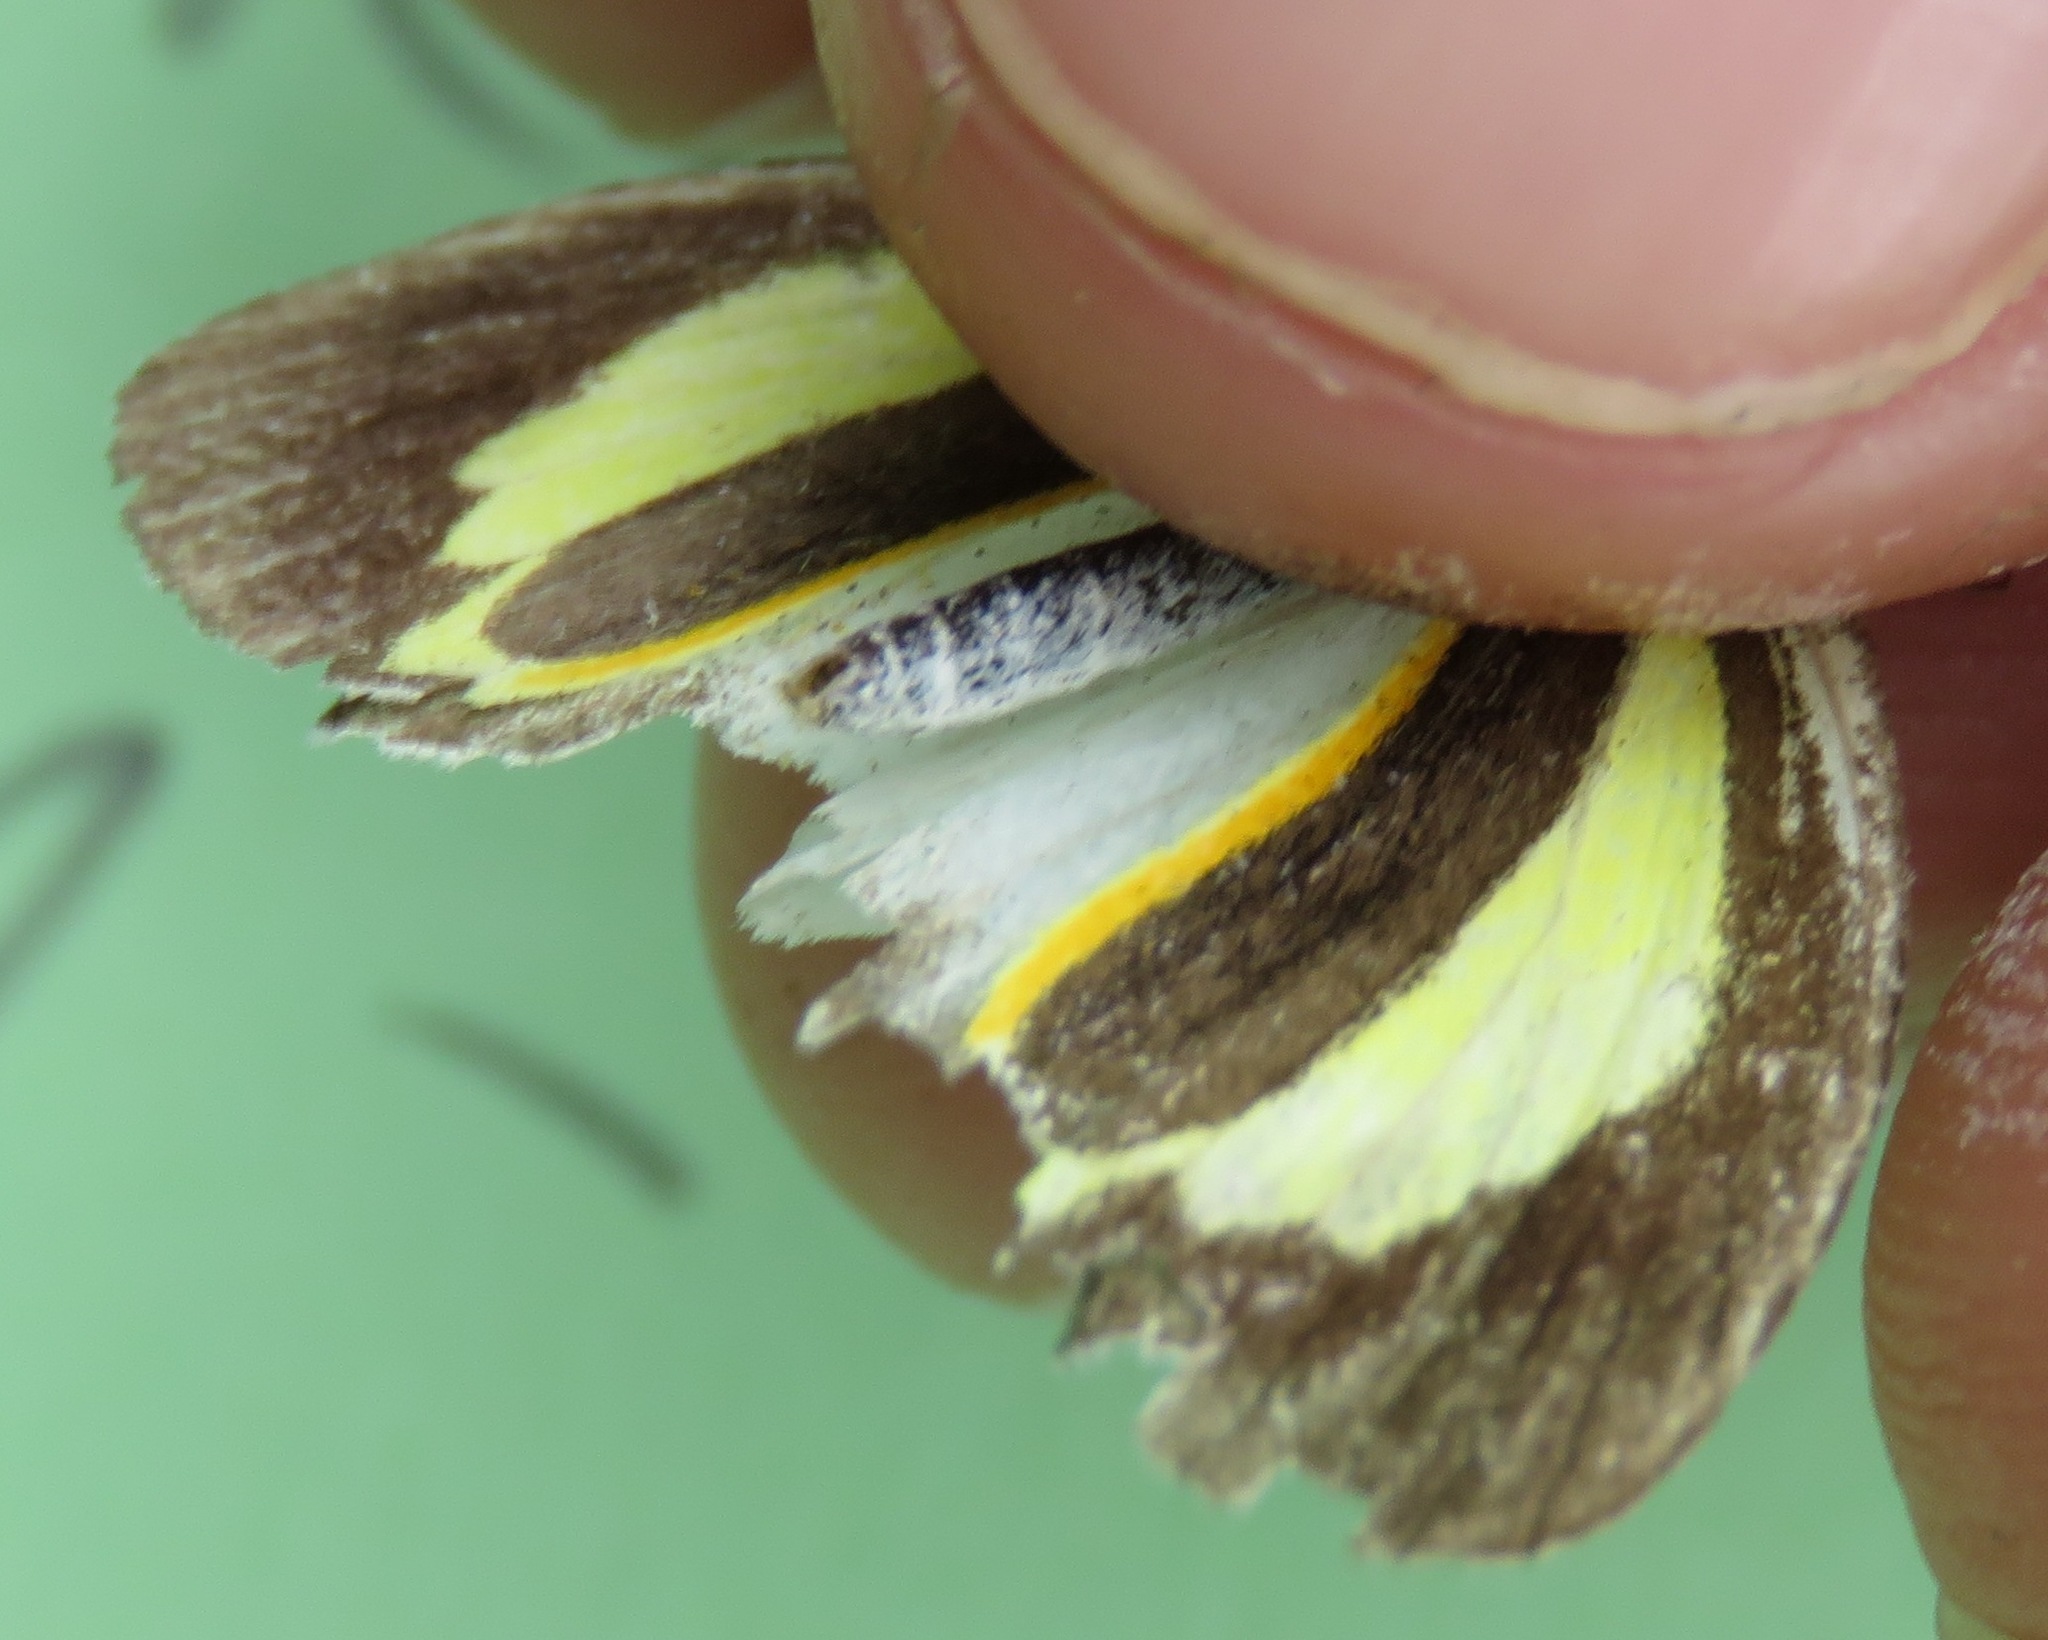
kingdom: Animalia
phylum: Arthropoda
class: Insecta
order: Lepidoptera
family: Pieridae
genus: Eurema
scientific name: Eurema daira
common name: Barred sulphur
